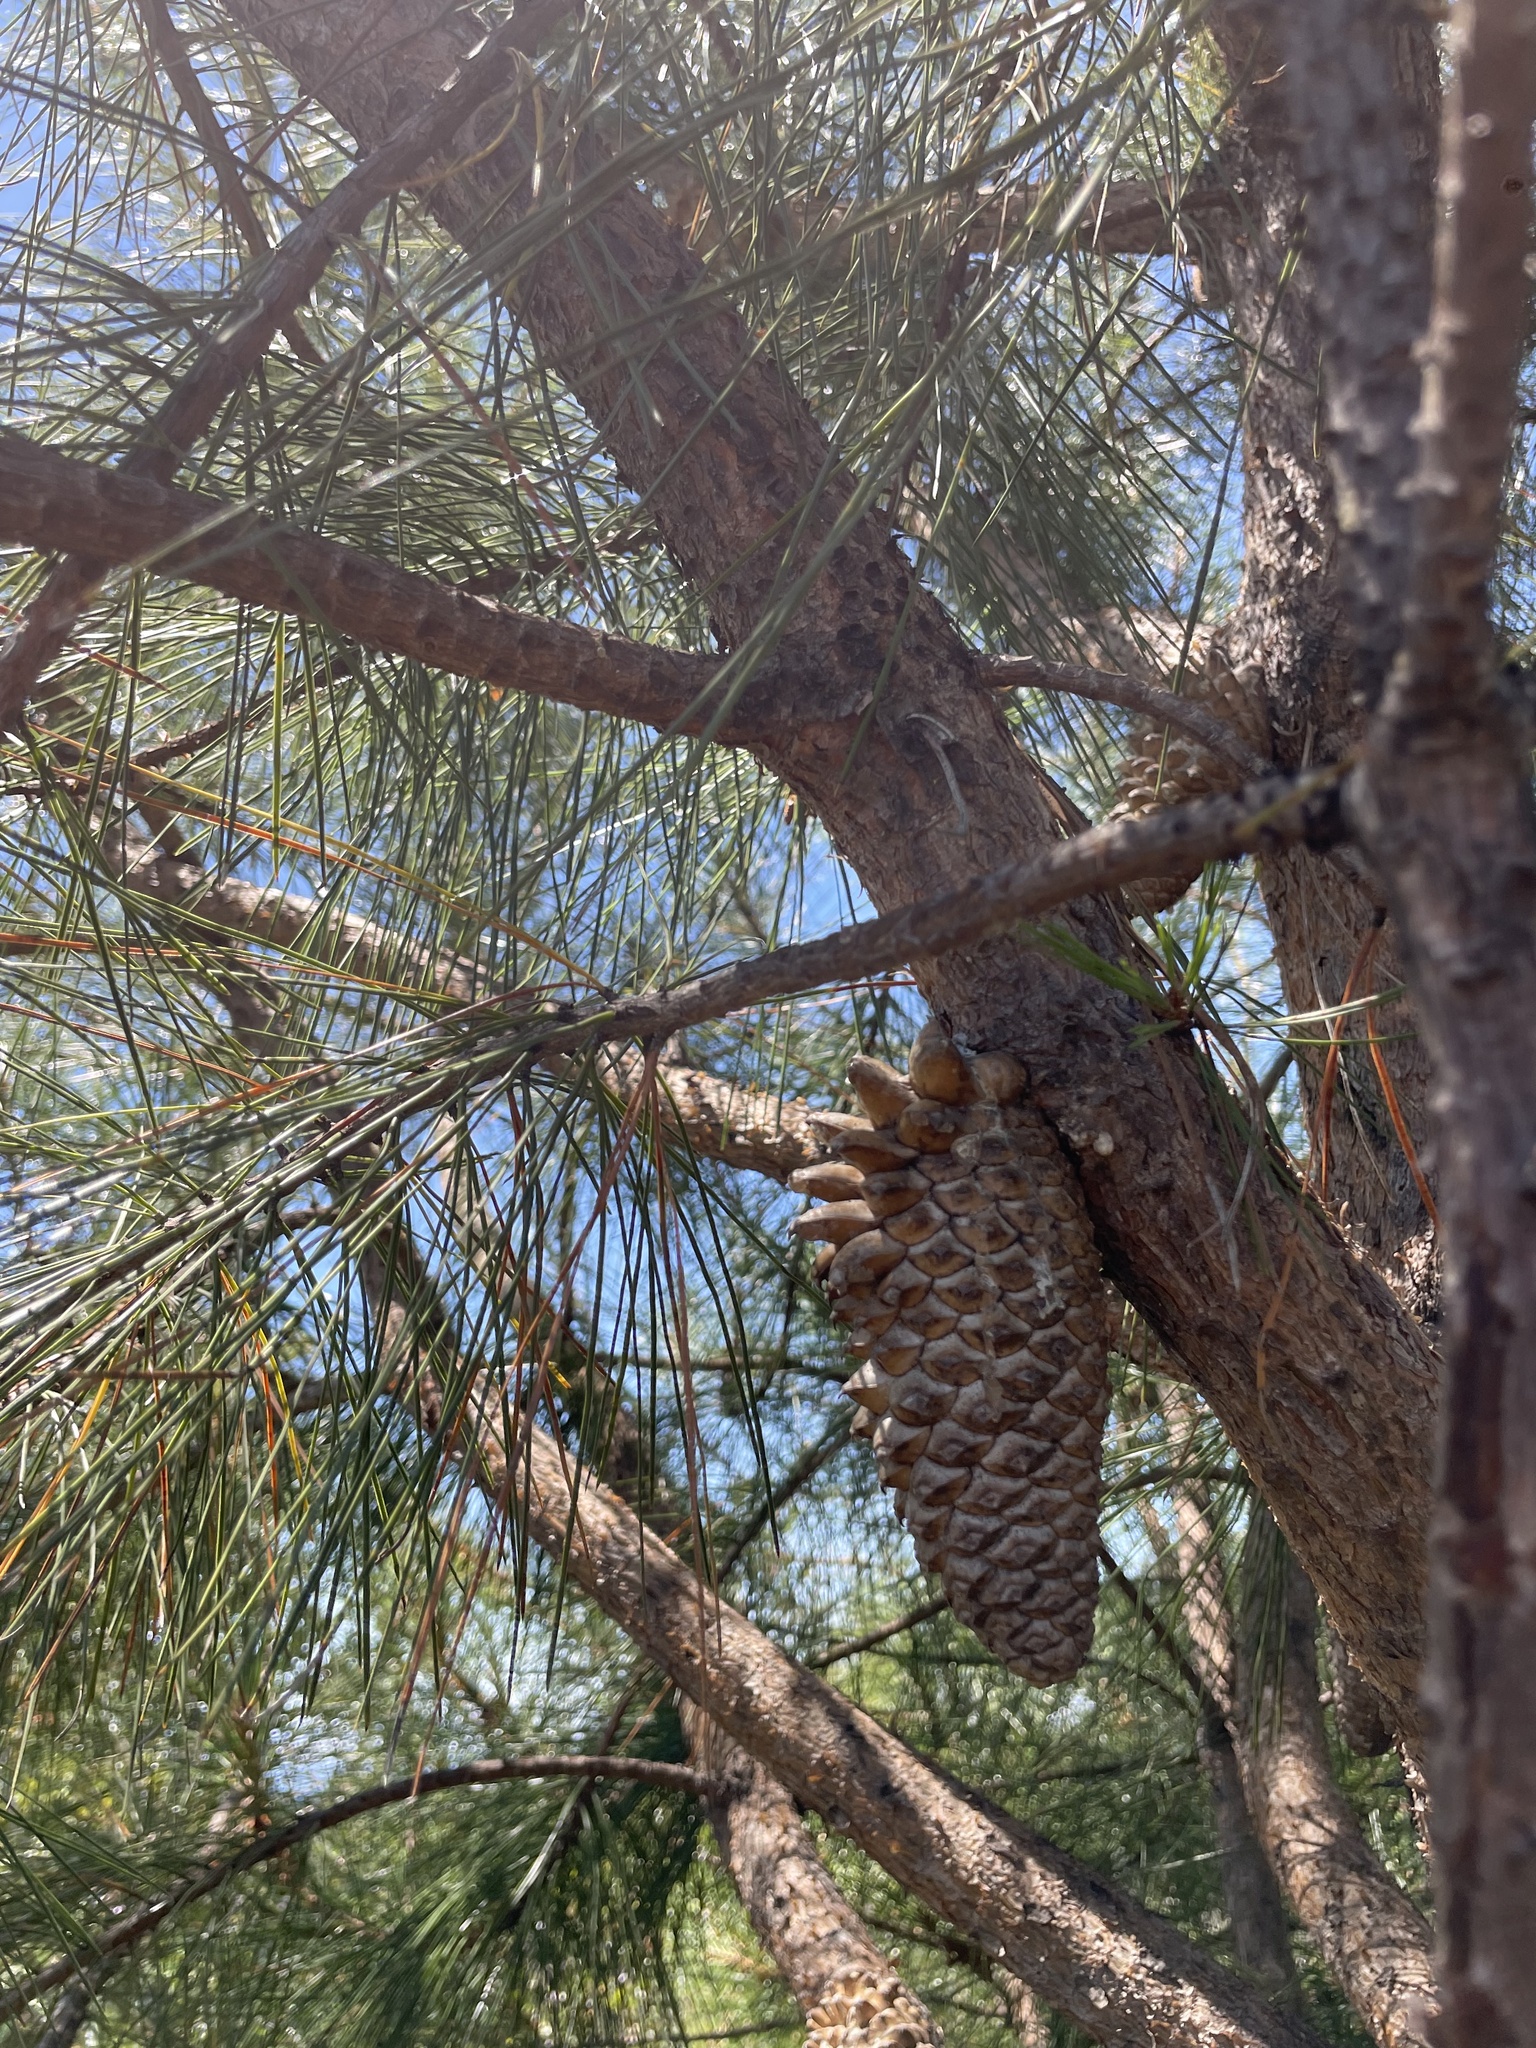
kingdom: Plantae
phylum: Tracheophyta
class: Pinopsida
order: Pinales
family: Pinaceae
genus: Pinus
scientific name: Pinus attenuata
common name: Knobcone pine
